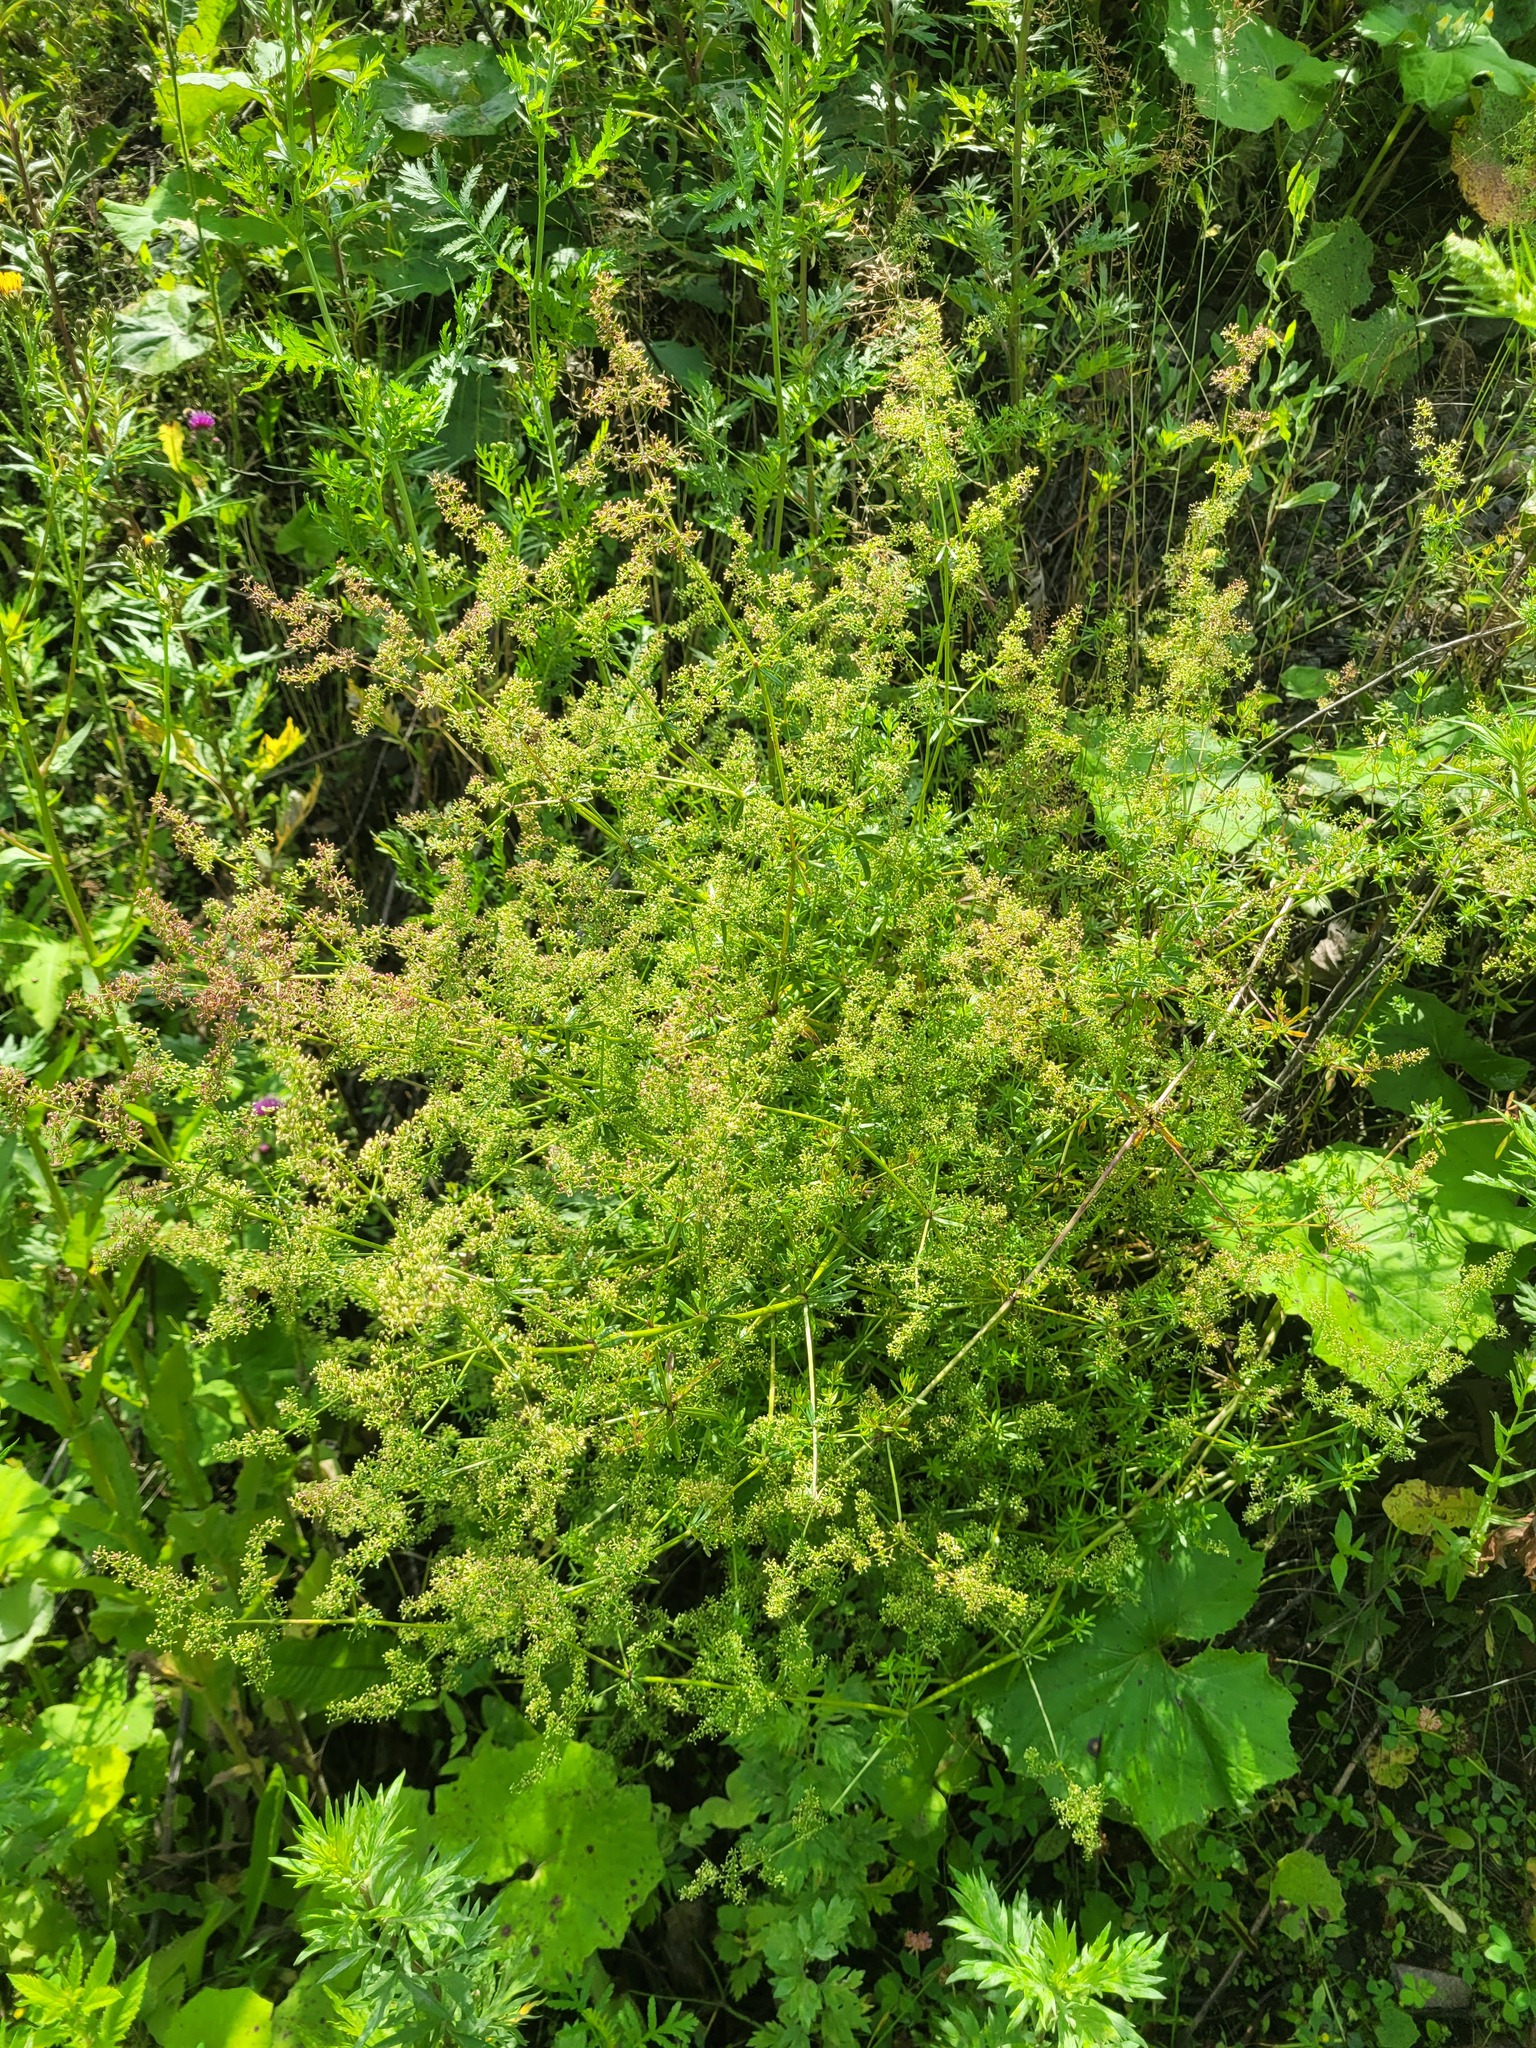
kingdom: Plantae
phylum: Tracheophyta
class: Magnoliopsida
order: Gentianales
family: Rubiaceae
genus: Galium
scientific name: Galium mollugo
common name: Hedge bedstraw
